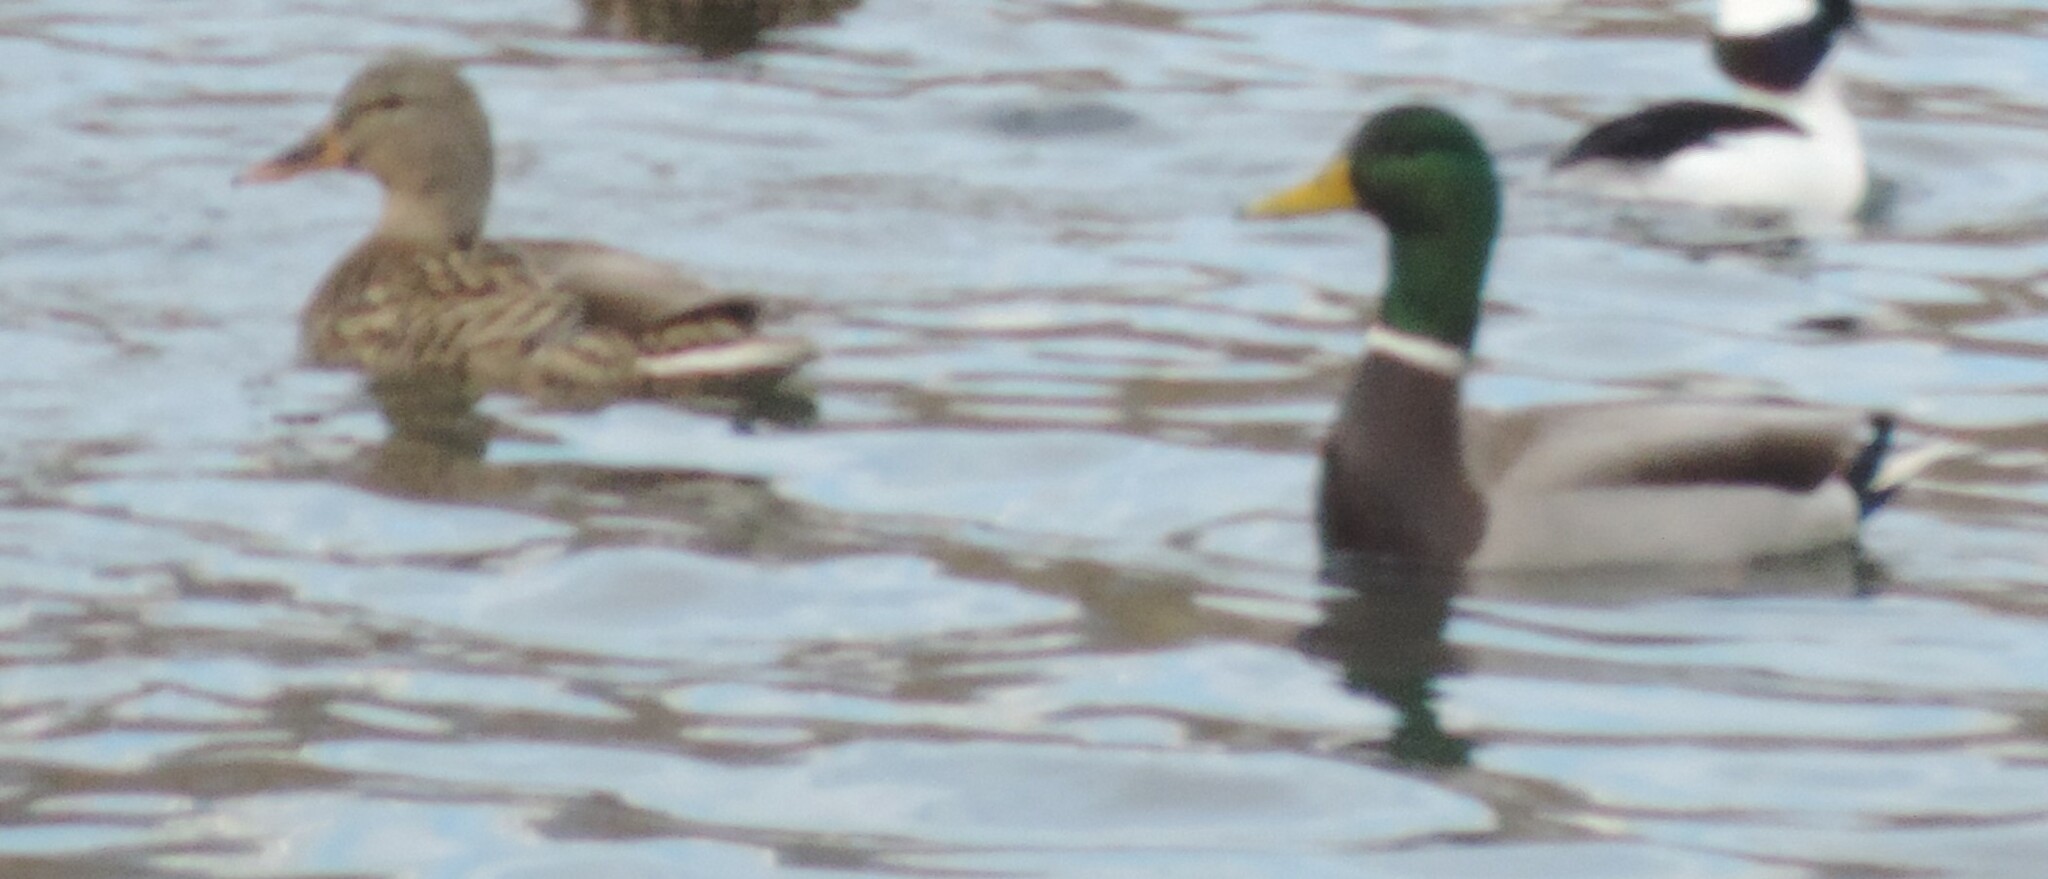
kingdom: Animalia
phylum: Chordata
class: Aves
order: Anseriformes
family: Anatidae
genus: Anas
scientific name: Anas platyrhynchos
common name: Mallard
